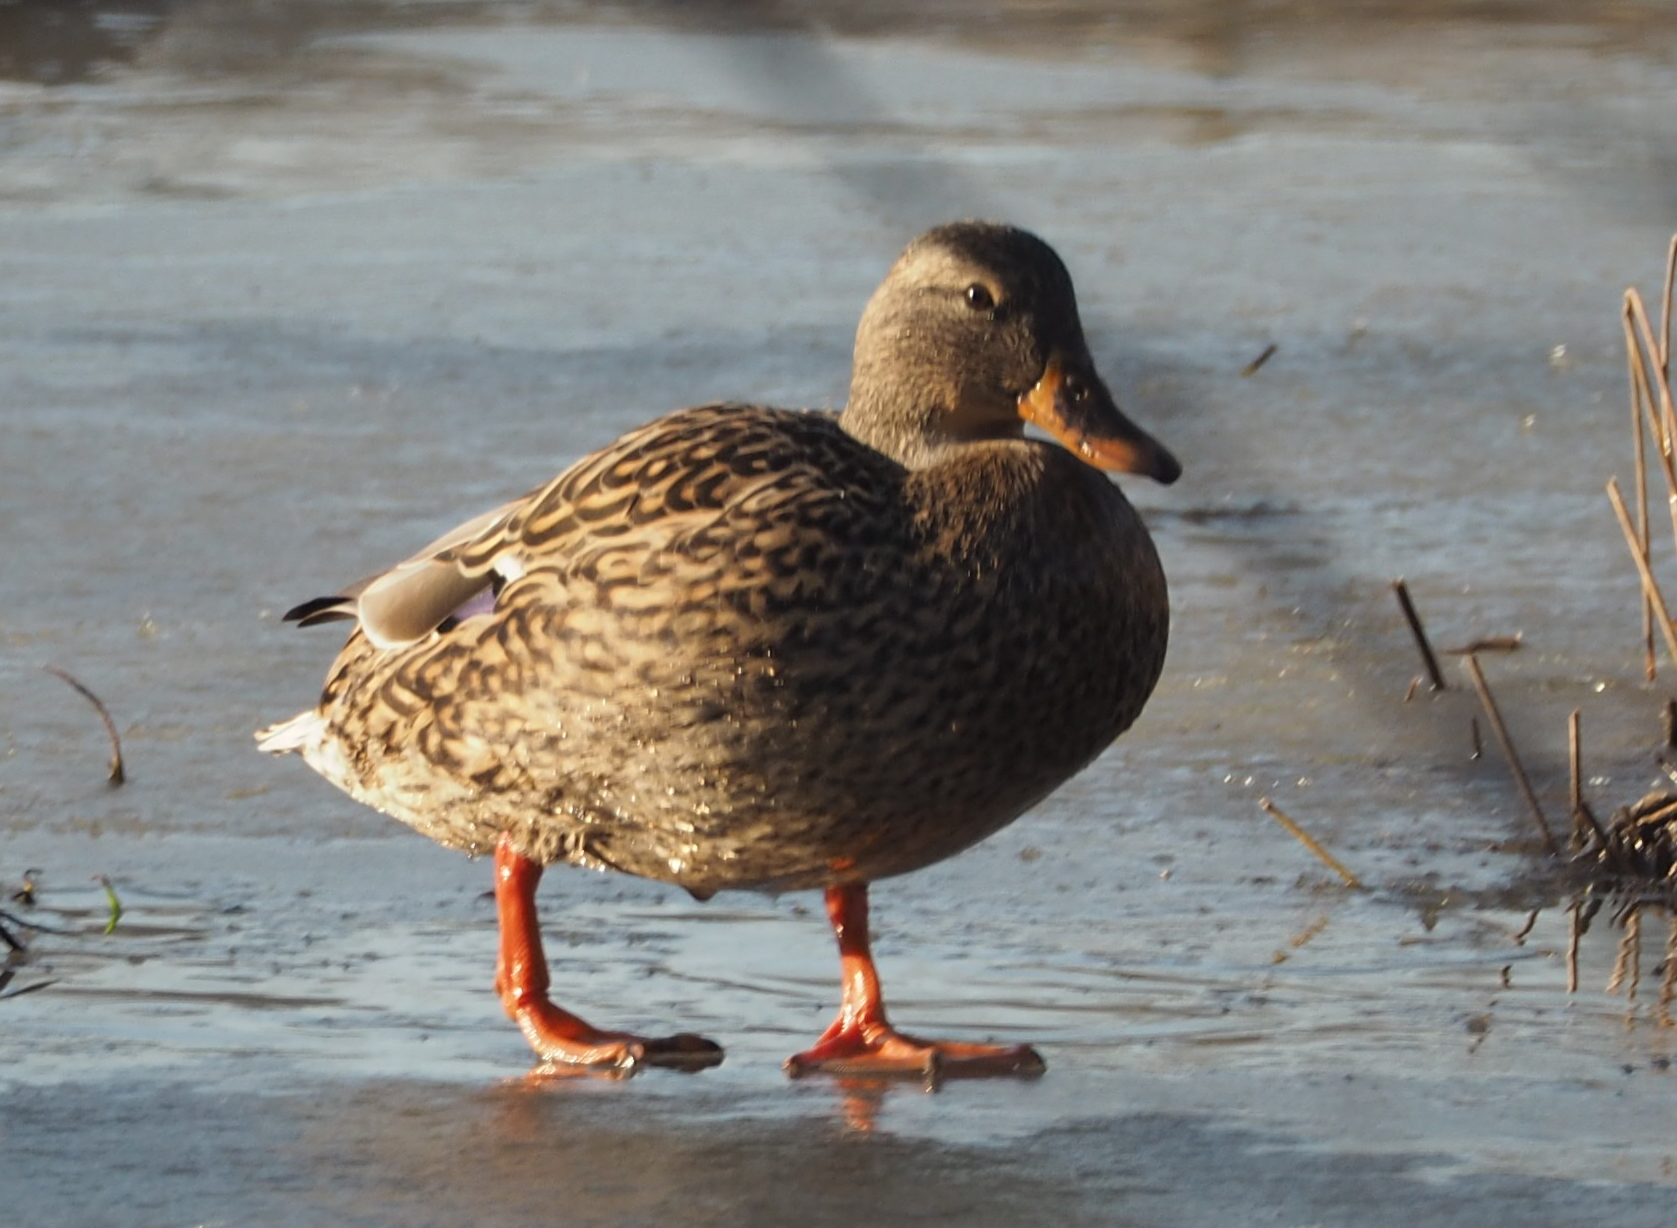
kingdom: Animalia
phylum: Chordata
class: Aves
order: Anseriformes
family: Anatidae
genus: Anas
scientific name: Anas platyrhynchos
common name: Mallard
